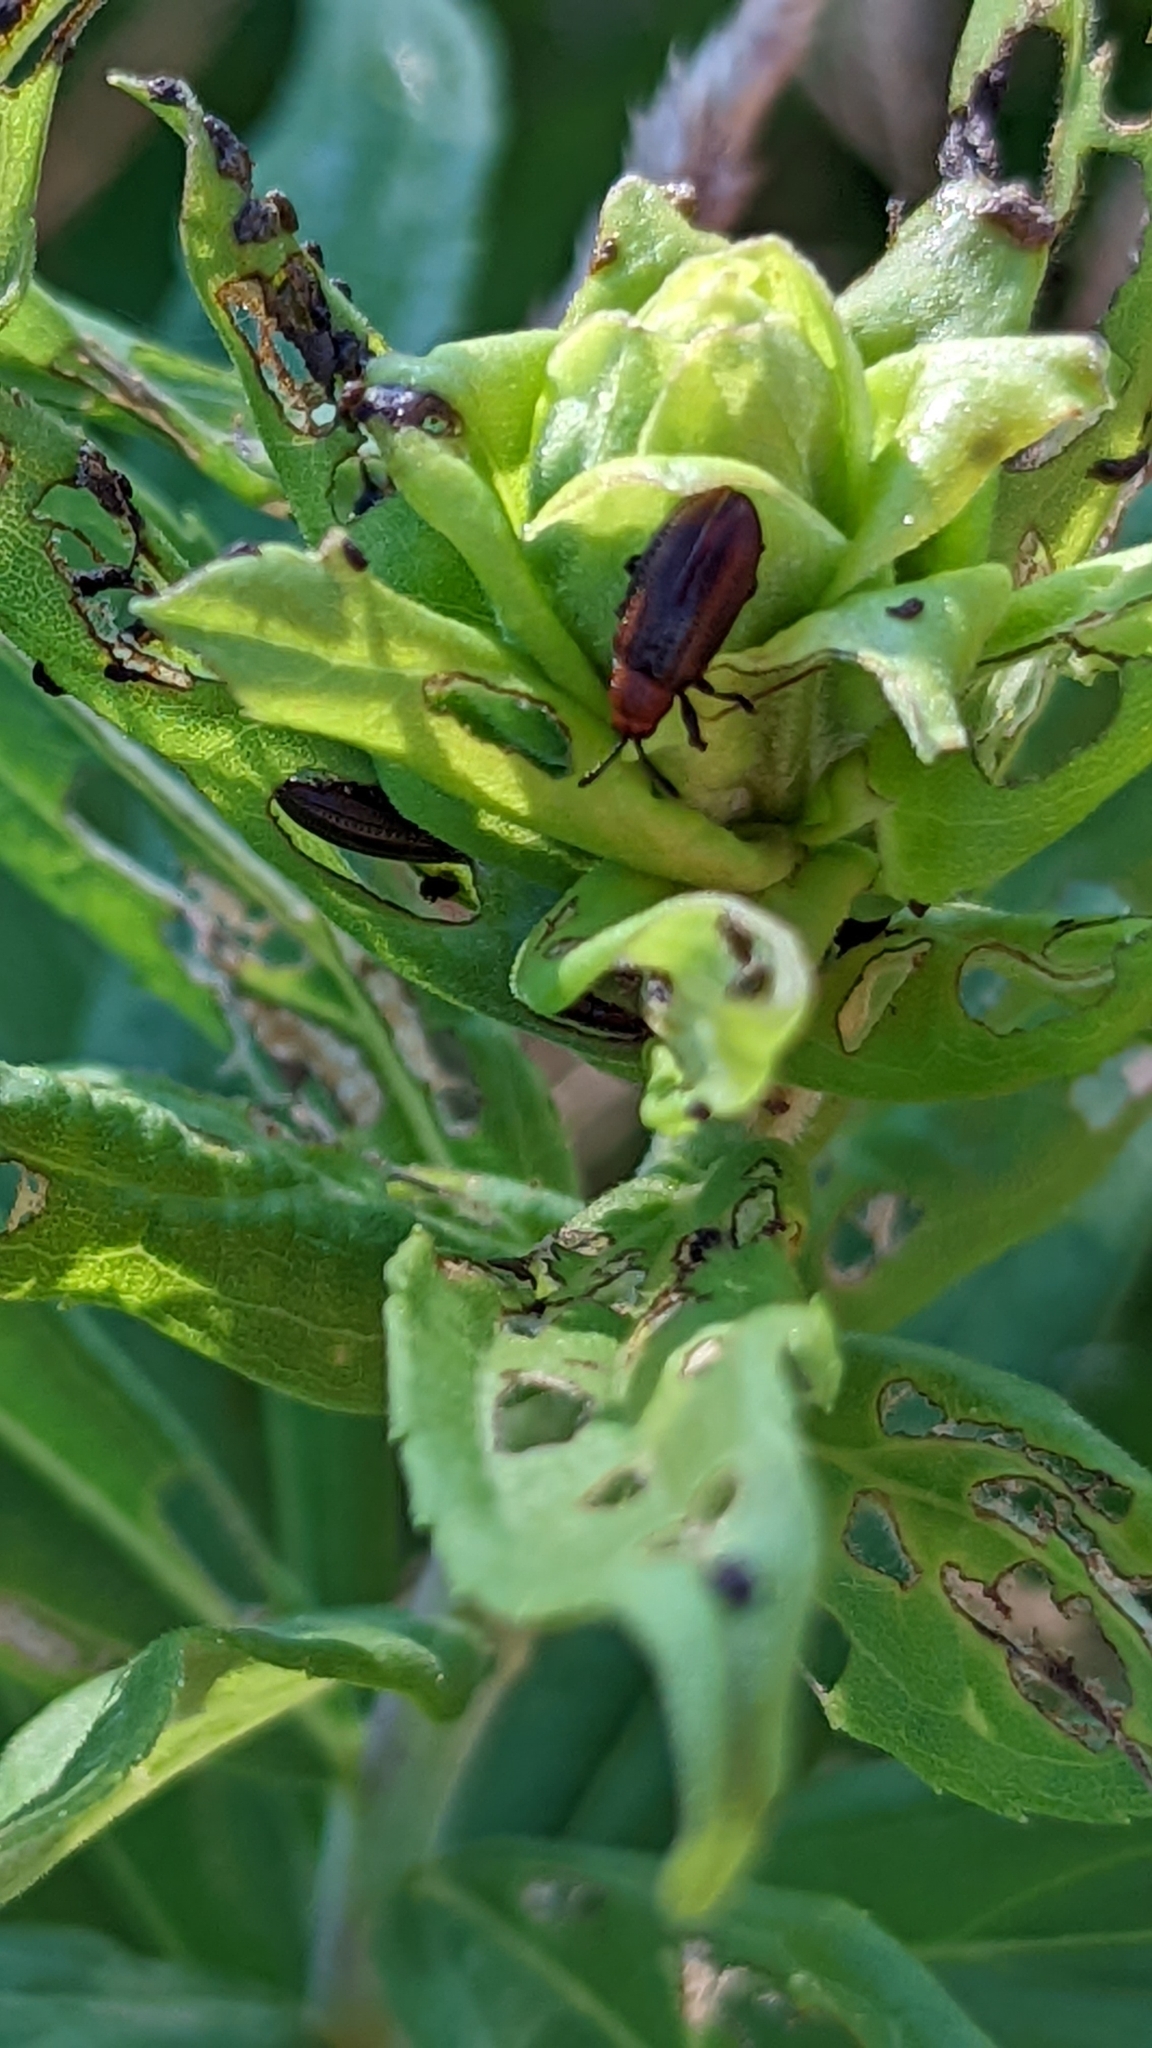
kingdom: Animalia
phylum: Arthropoda
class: Insecta
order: Coleoptera
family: Chrysomelidae
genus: Microrhopala
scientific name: Microrhopala vittata
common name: Goldenrod leaf miner beetle
